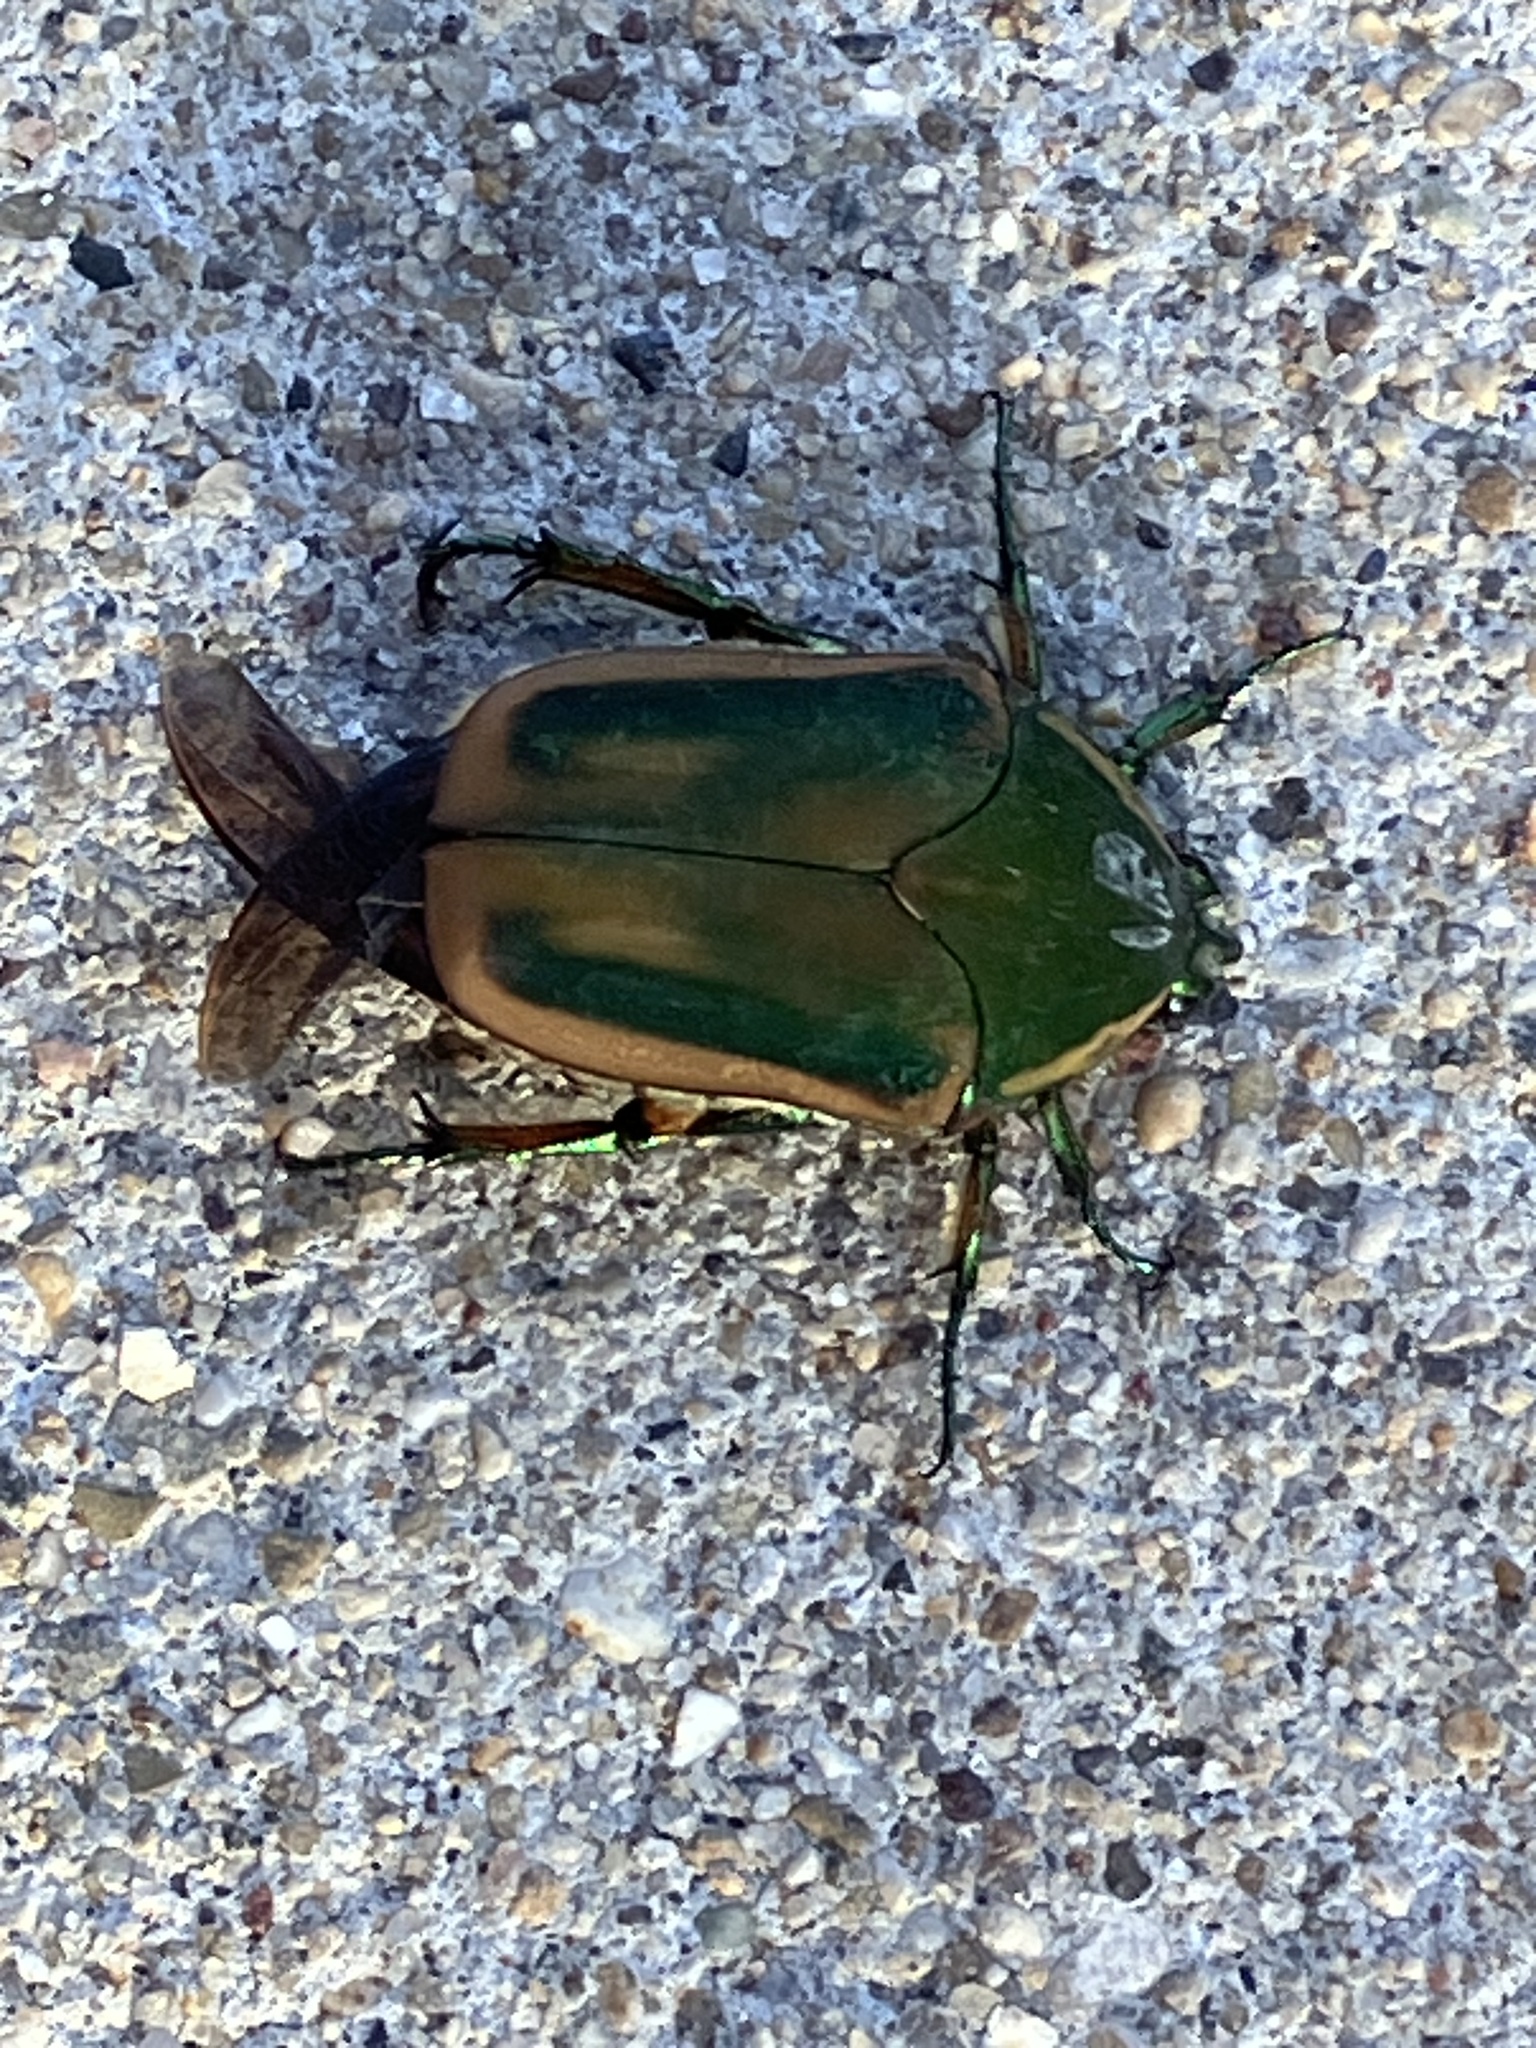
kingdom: Animalia
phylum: Arthropoda
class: Insecta
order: Coleoptera
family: Scarabaeidae
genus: Cotinis
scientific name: Cotinis nitida
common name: Common green june beetle
